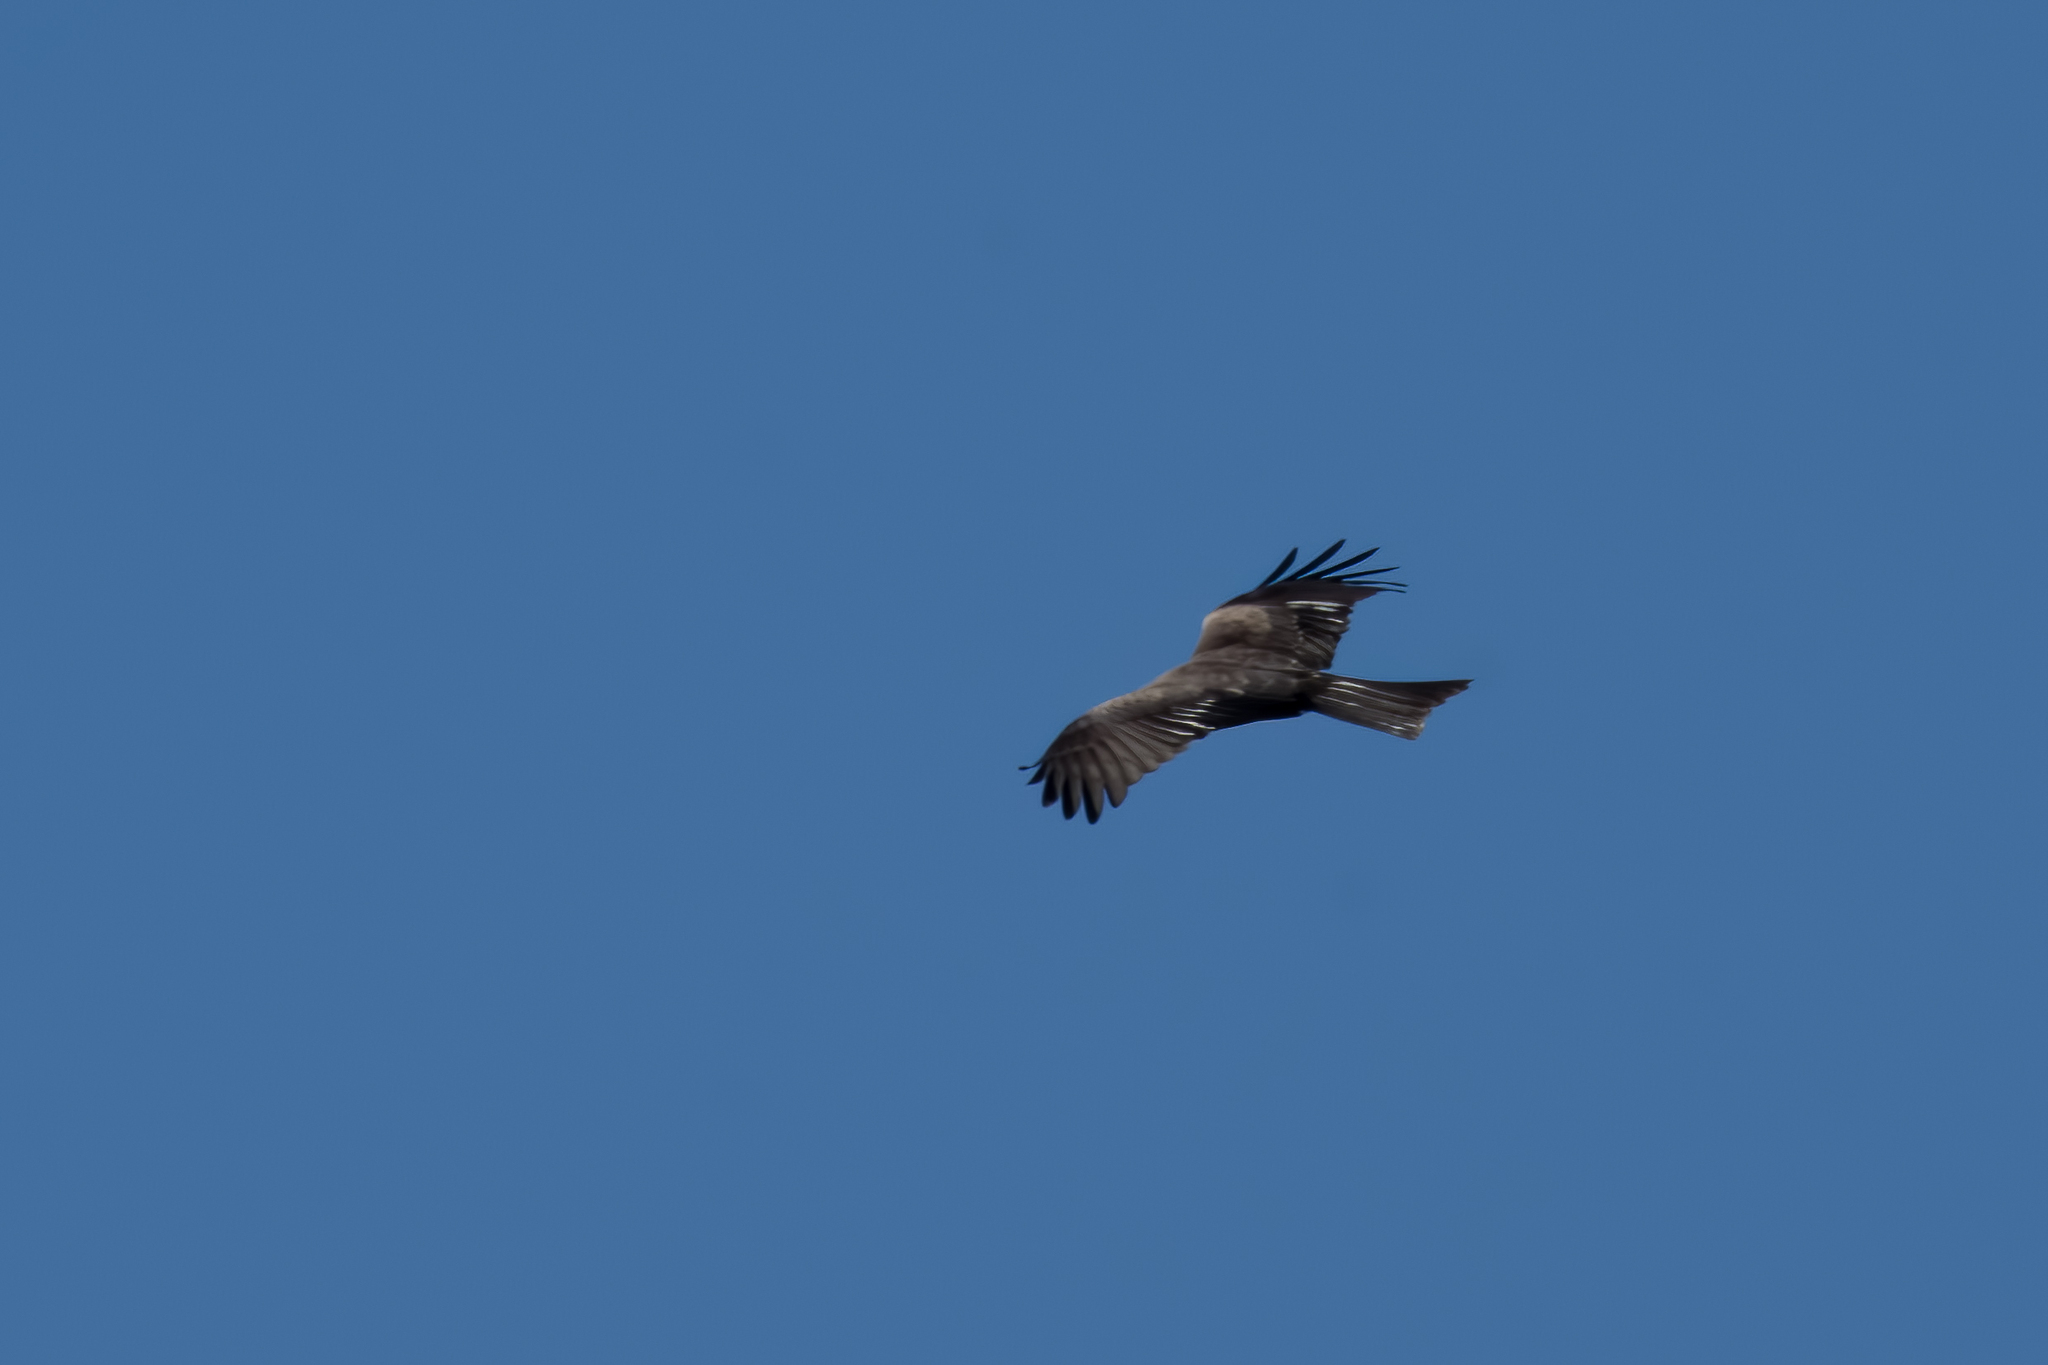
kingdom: Animalia
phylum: Chordata
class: Aves
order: Accipitriformes
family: Accipitridae
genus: Milvus
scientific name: Milvus migrans
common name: Black kite
